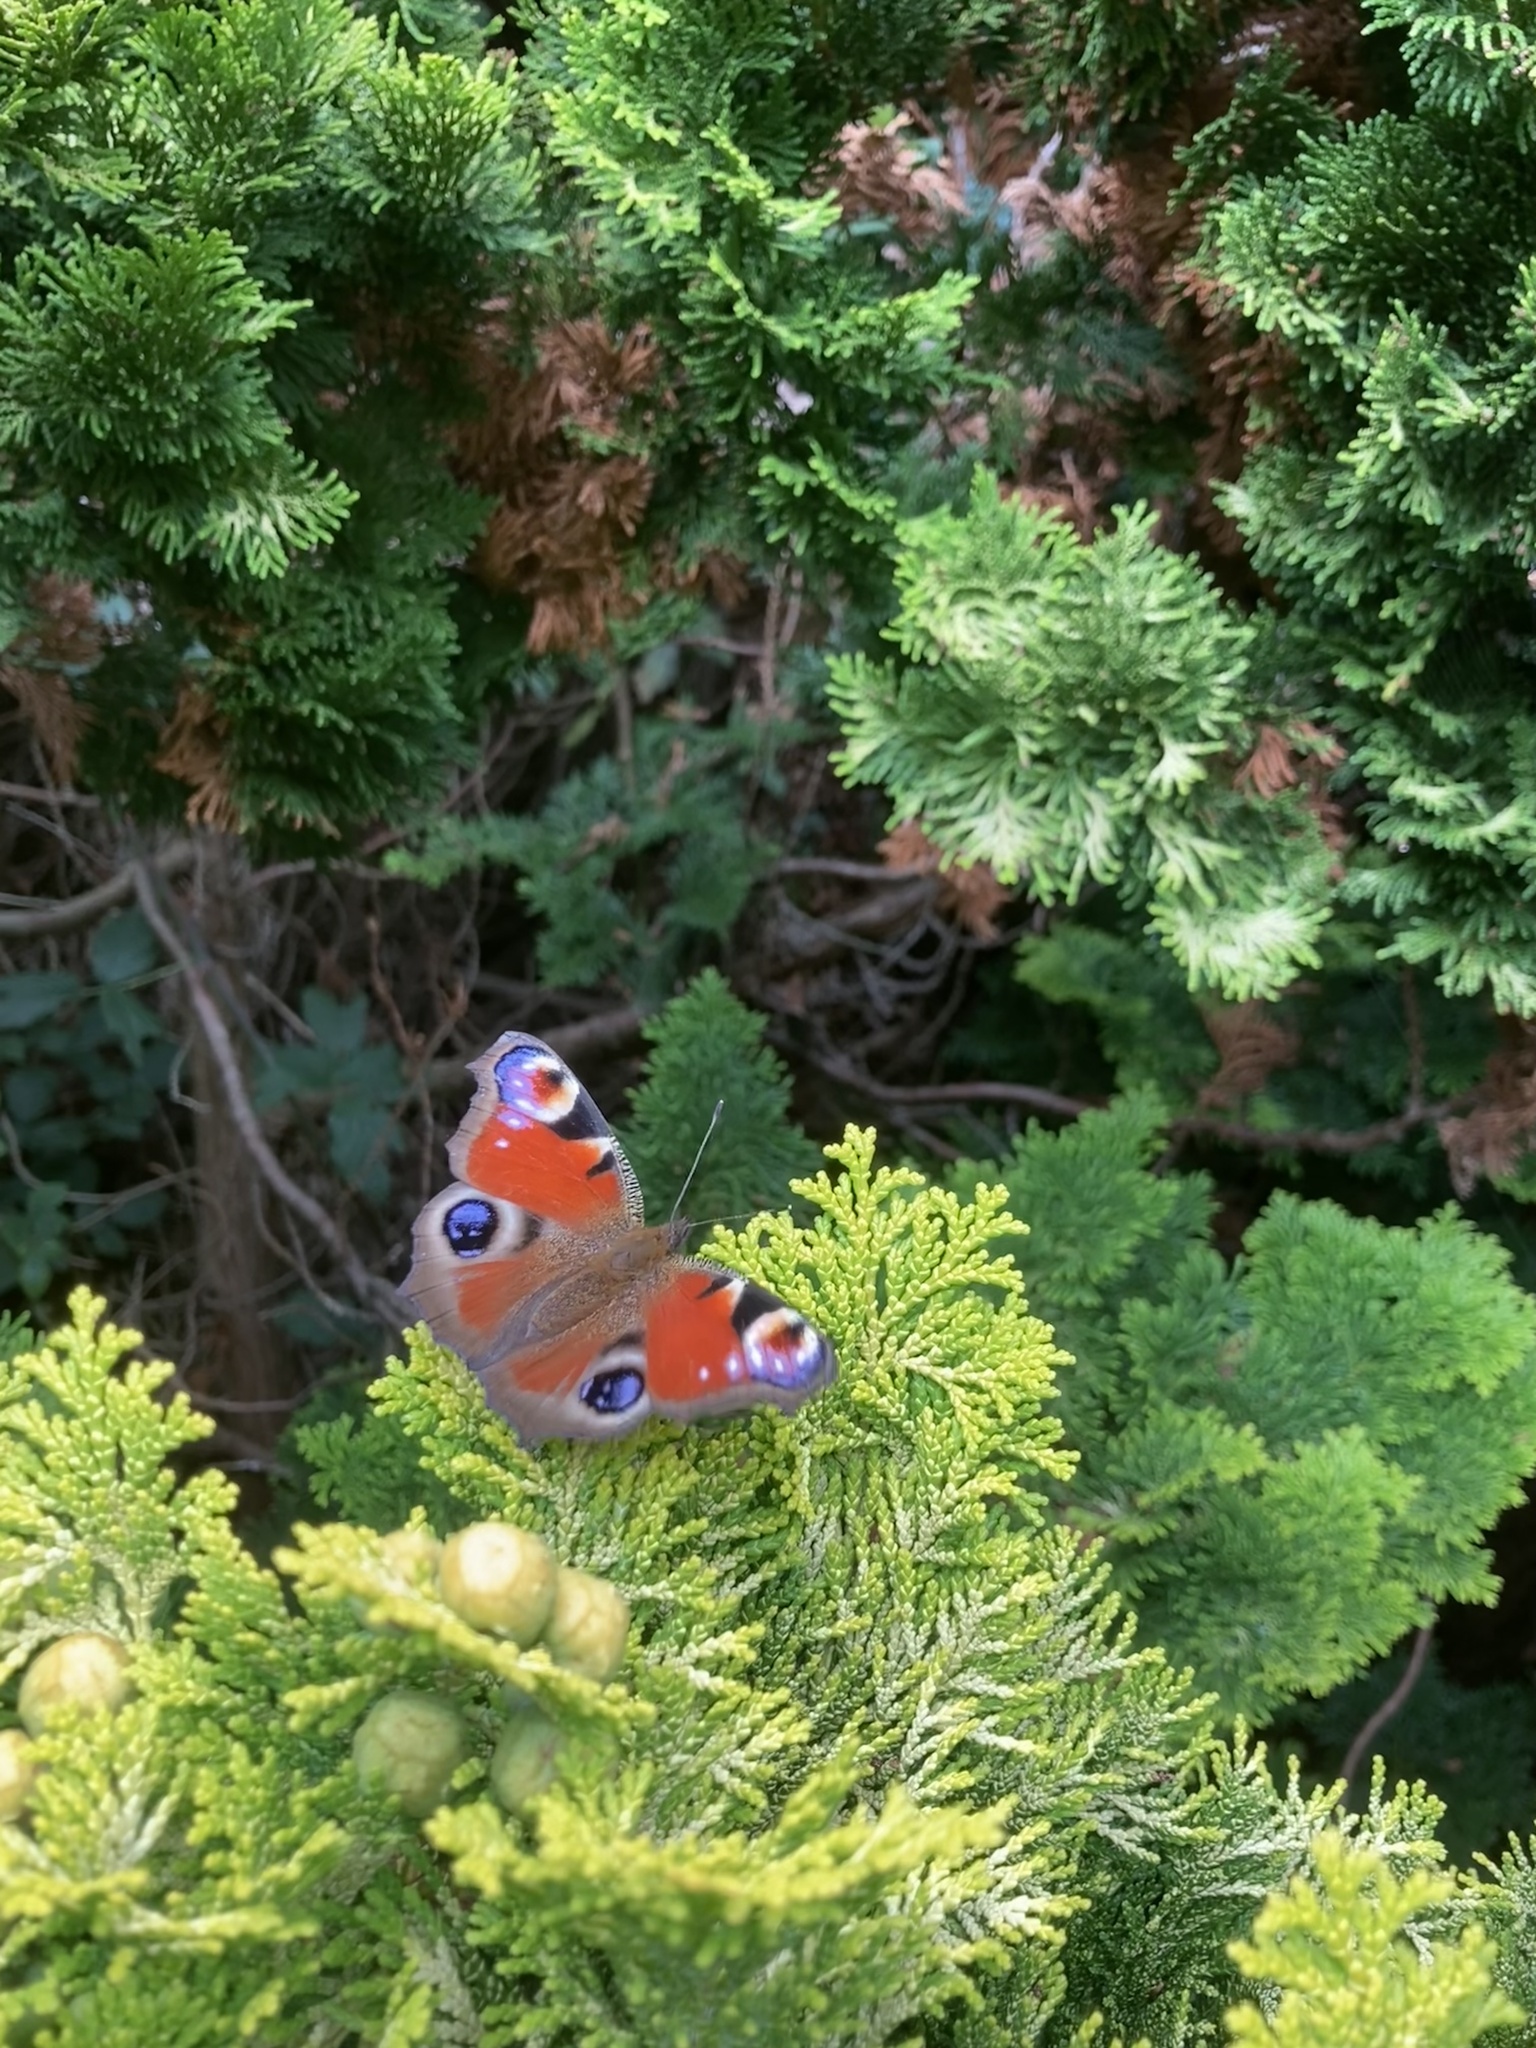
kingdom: Animalia
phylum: Arthropoda
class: Insecta
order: Lepidoptera
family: Nymphalidae
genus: Aglais
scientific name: Aglais io
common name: Peacock
